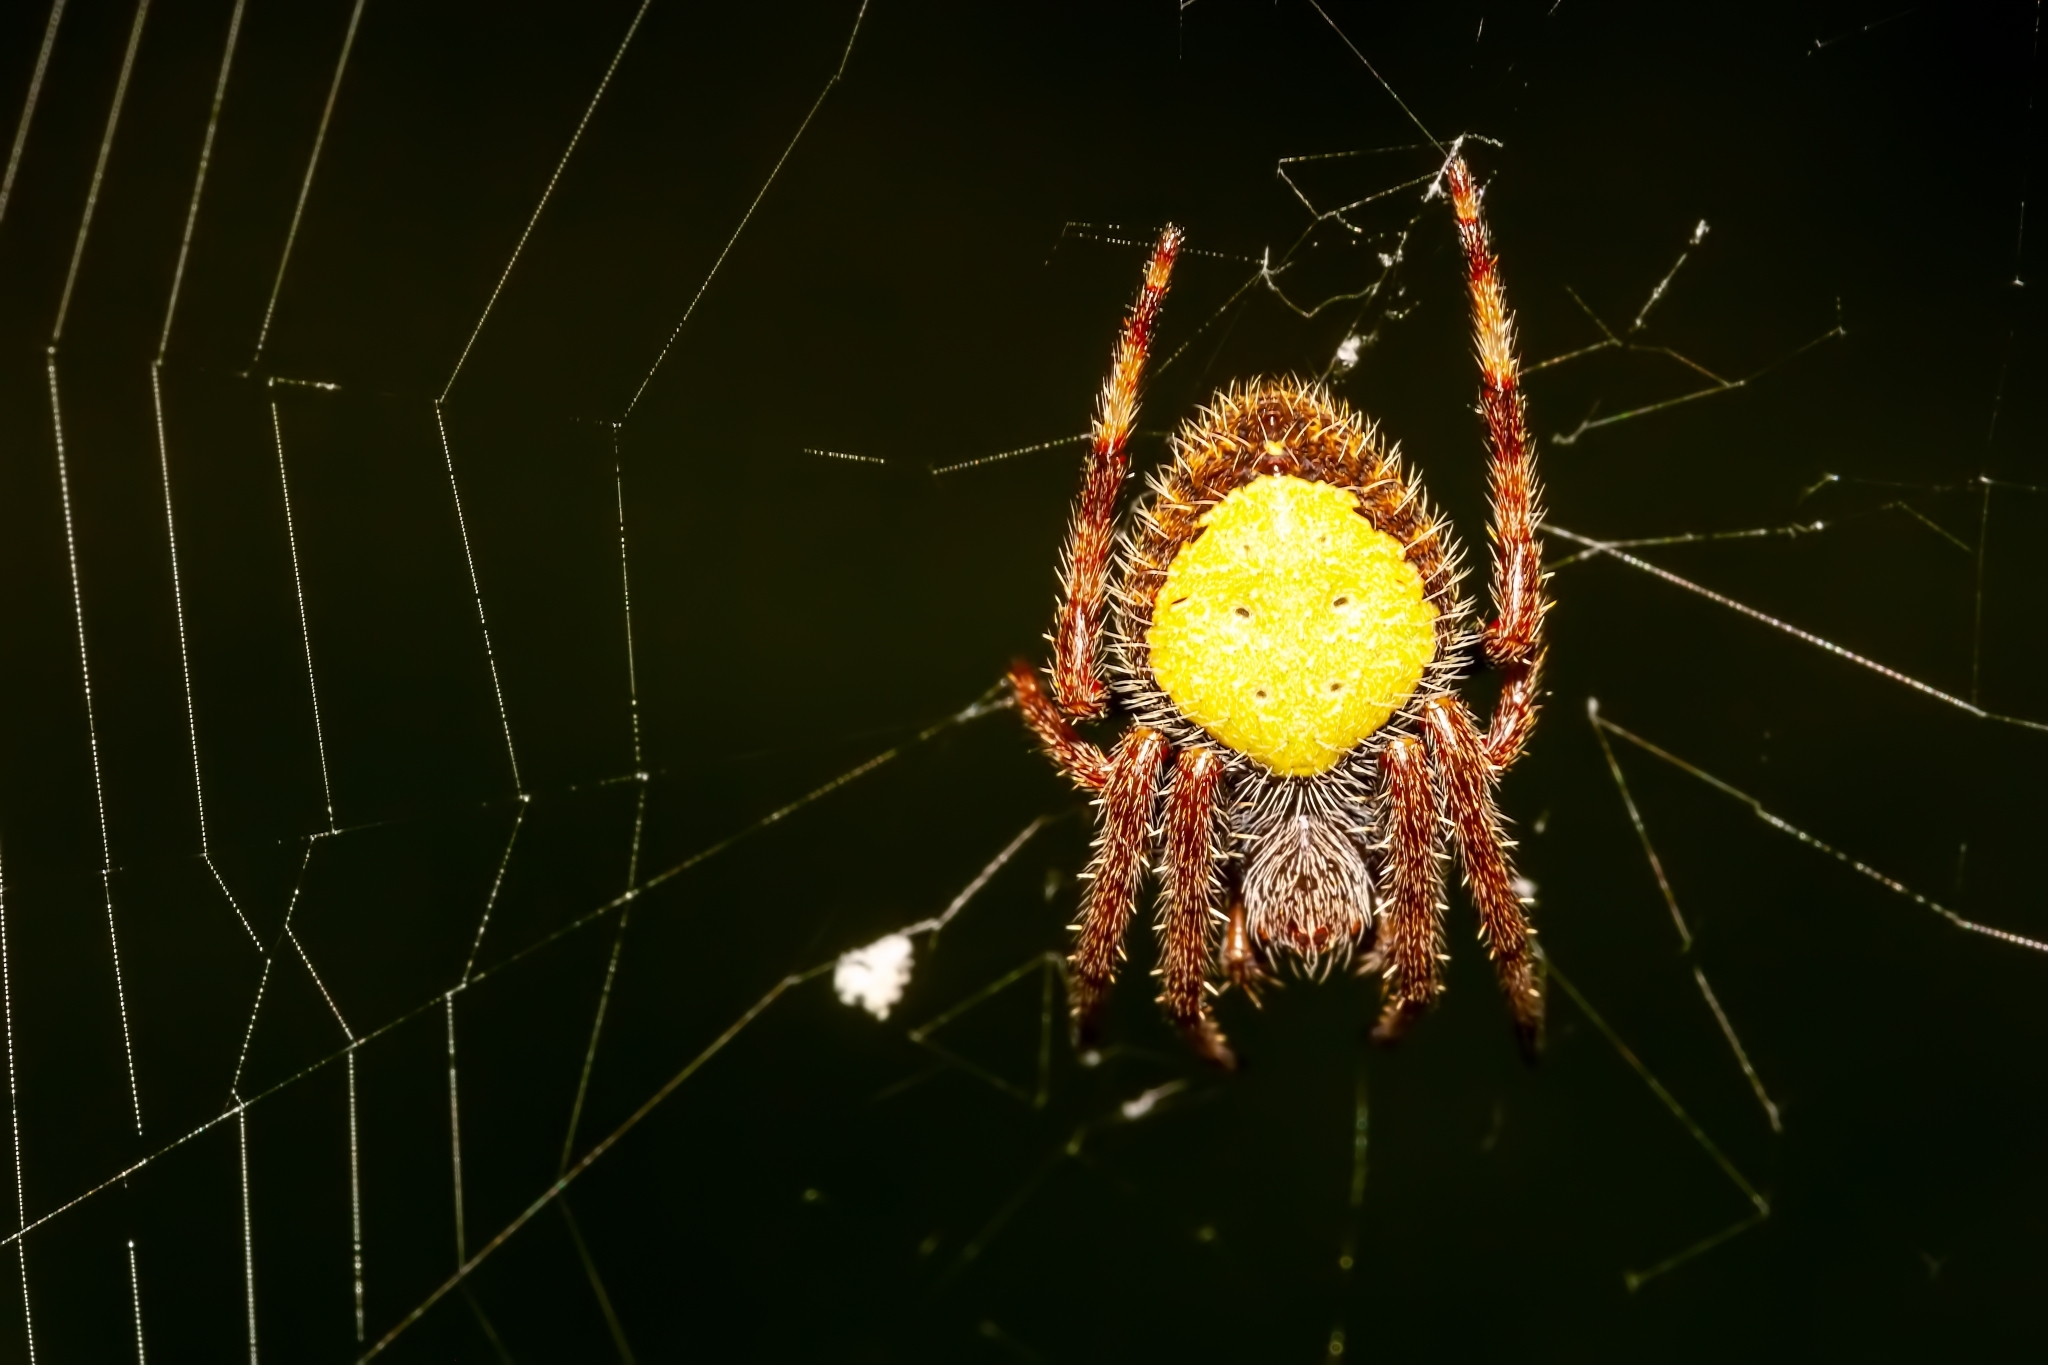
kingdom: Animalia
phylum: Arthropoda
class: Arachnida
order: Araneae
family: Araneidae
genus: Eriophora
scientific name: Eriophora ravilla
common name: Orb weavers
